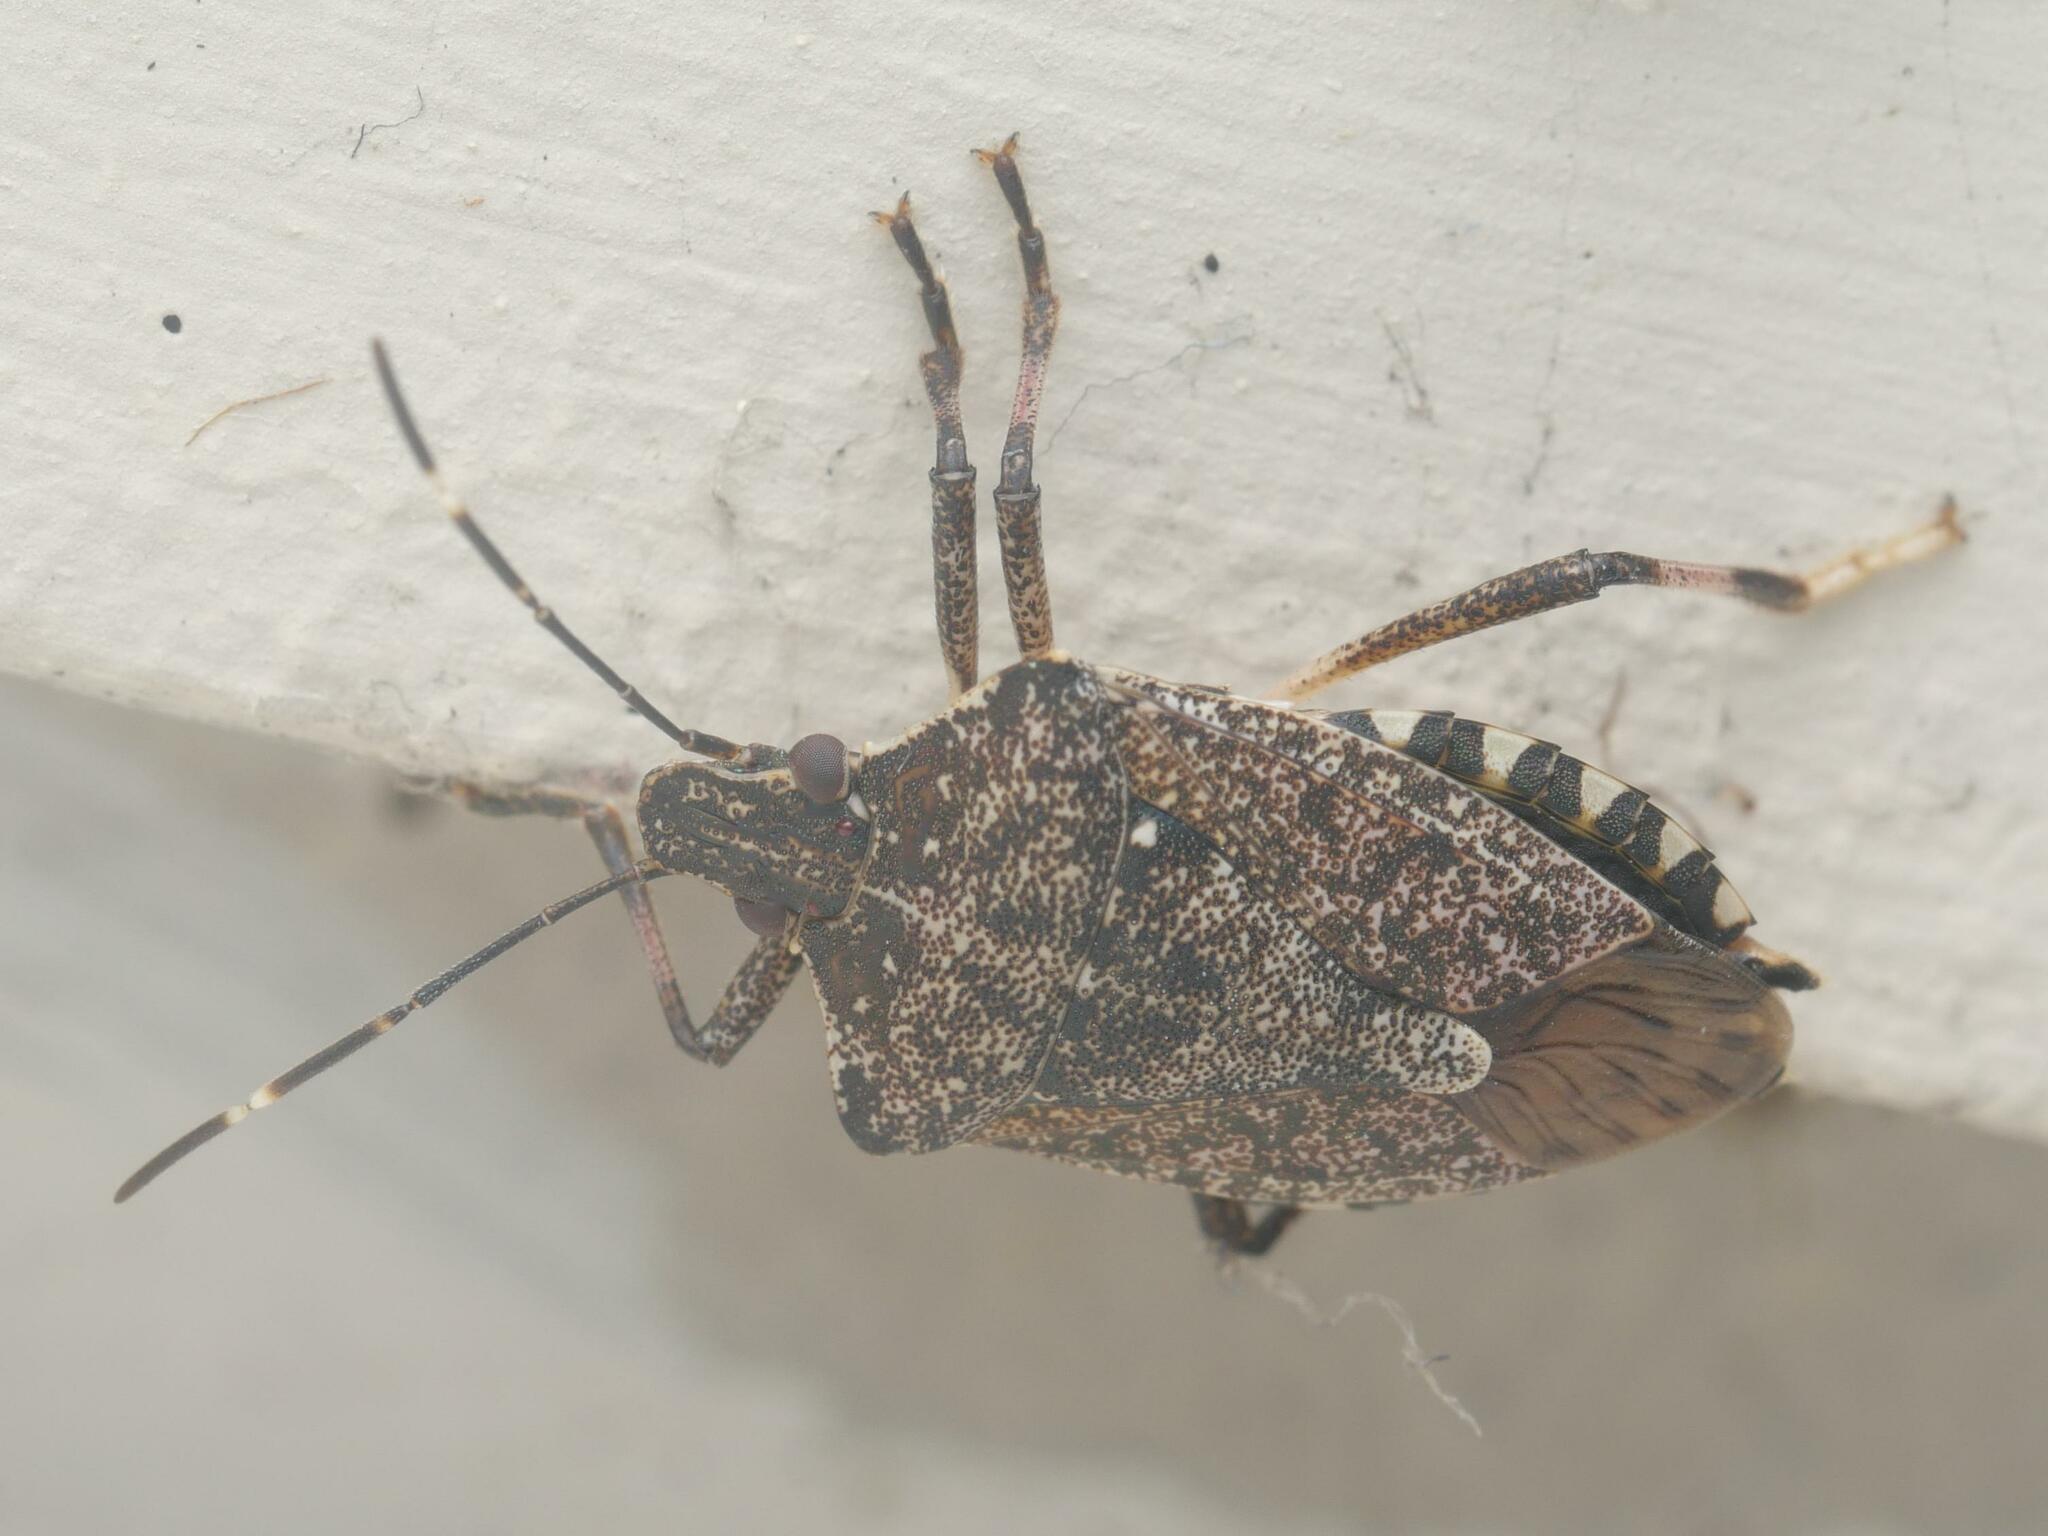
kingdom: Animalia
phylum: Arthropoda
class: Insecta
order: Hemiptera
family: Pentatomidae
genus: Halyomorpha
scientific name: Halyomorpha halys
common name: Brown marmorated stink bug
